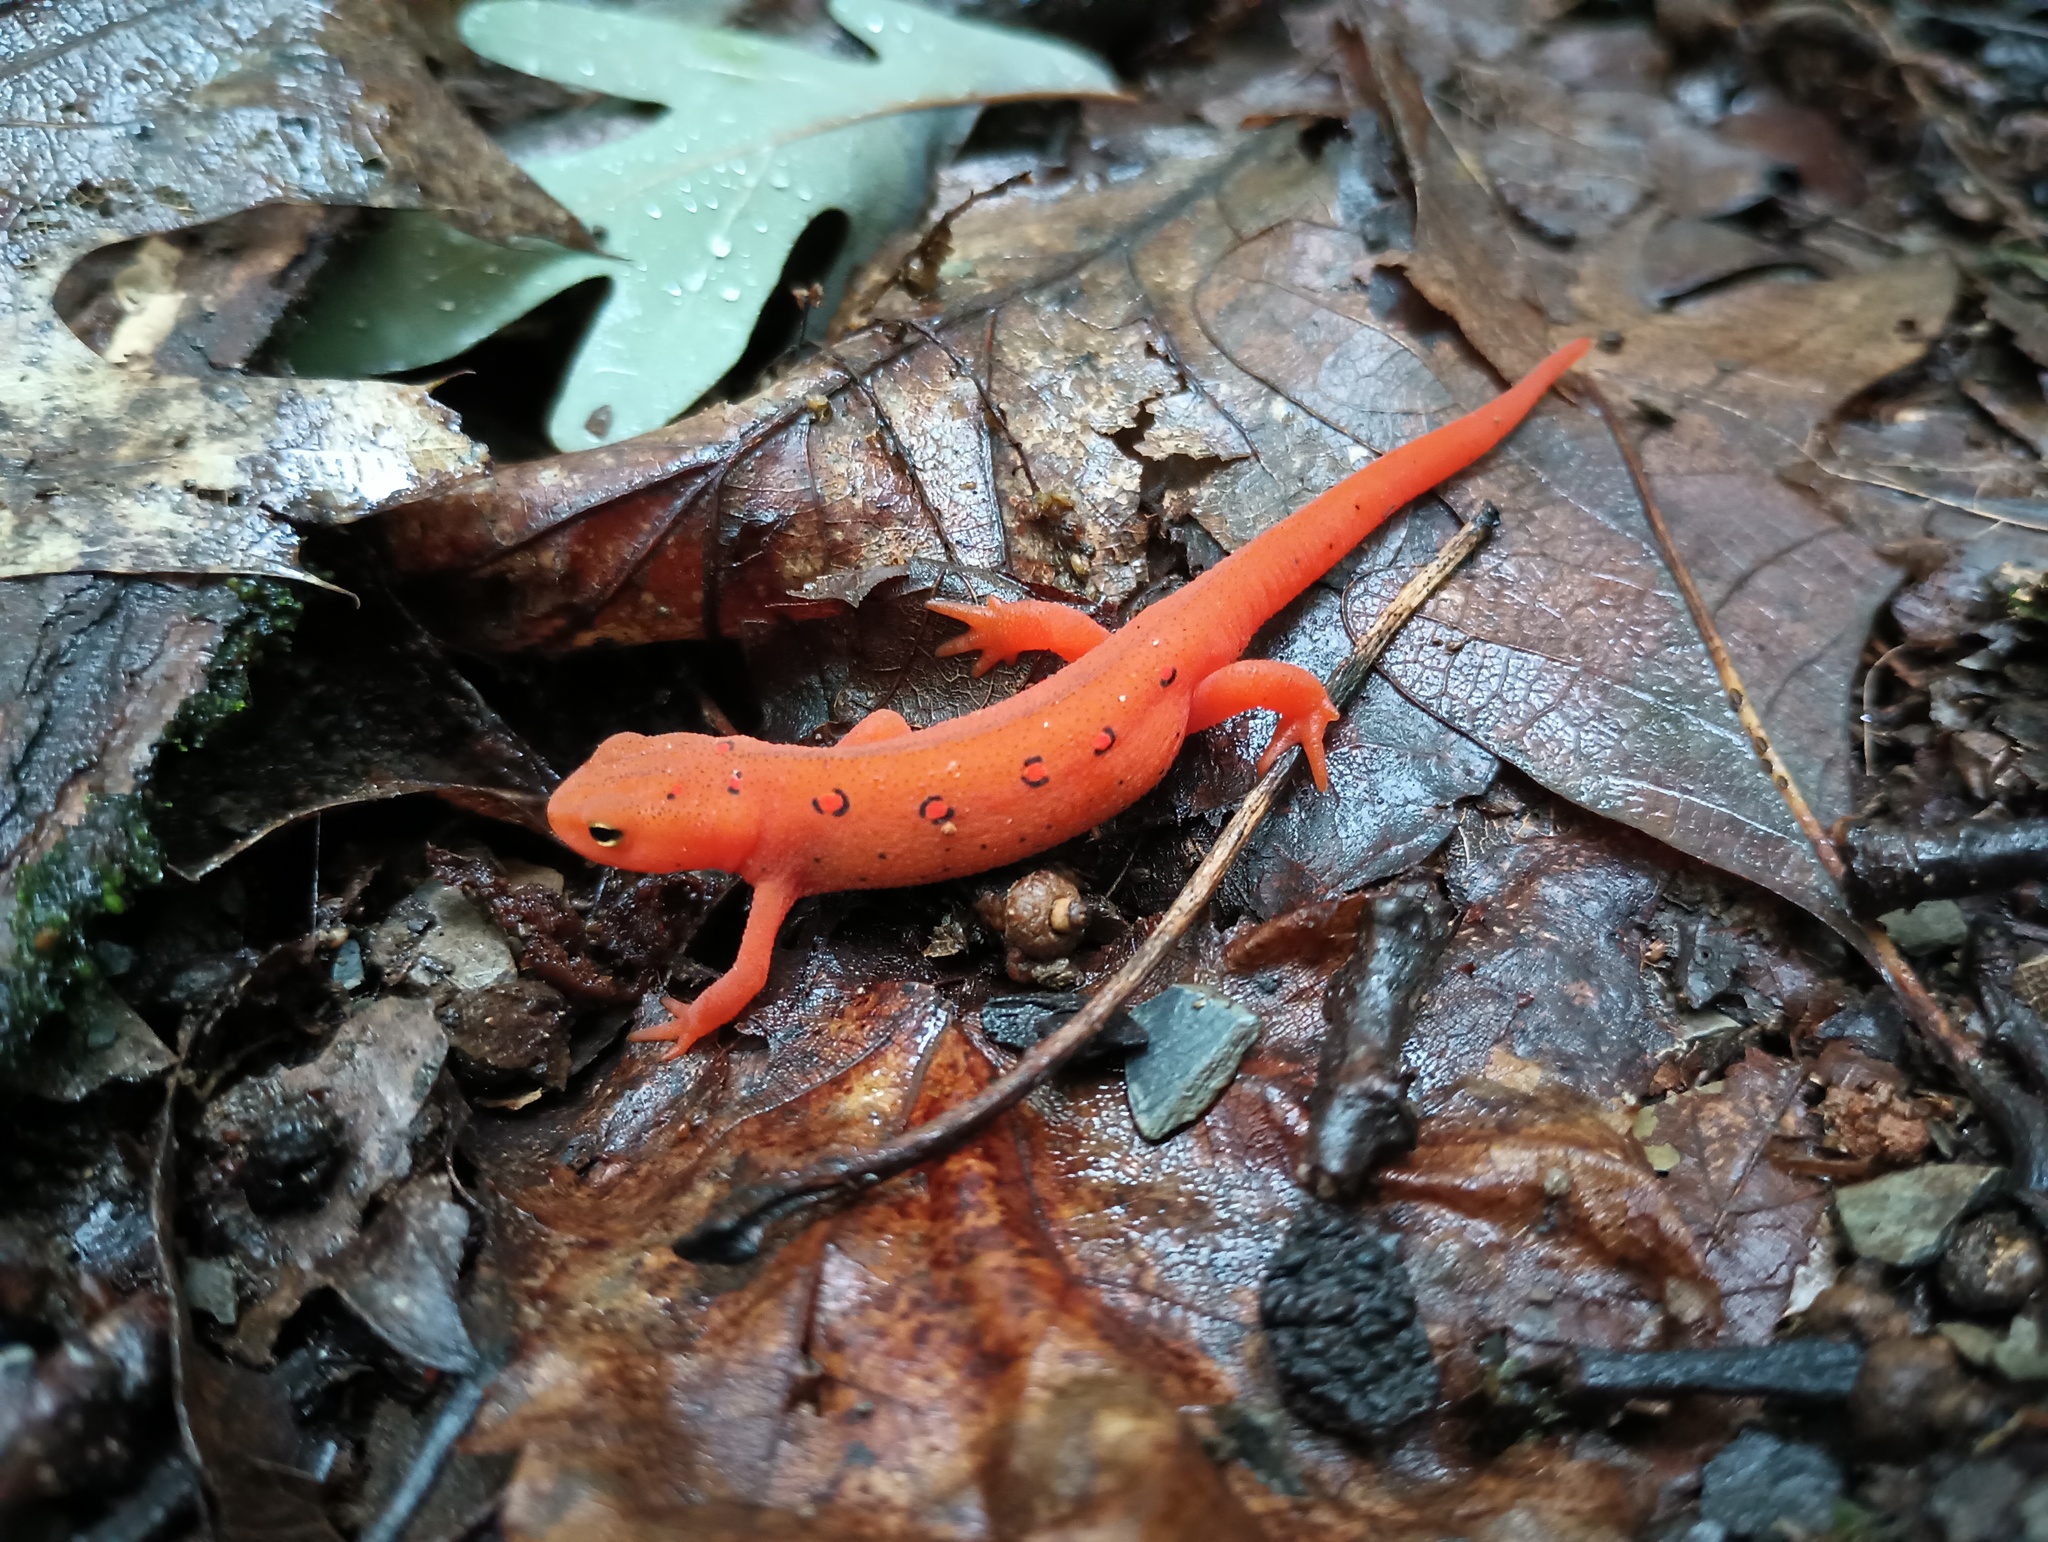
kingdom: Animalia
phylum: Chordata
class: Amphibia
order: Caudata
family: Salamandridae
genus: Notophthalmus
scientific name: Notophthalmus viridescens
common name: Eastern newt
